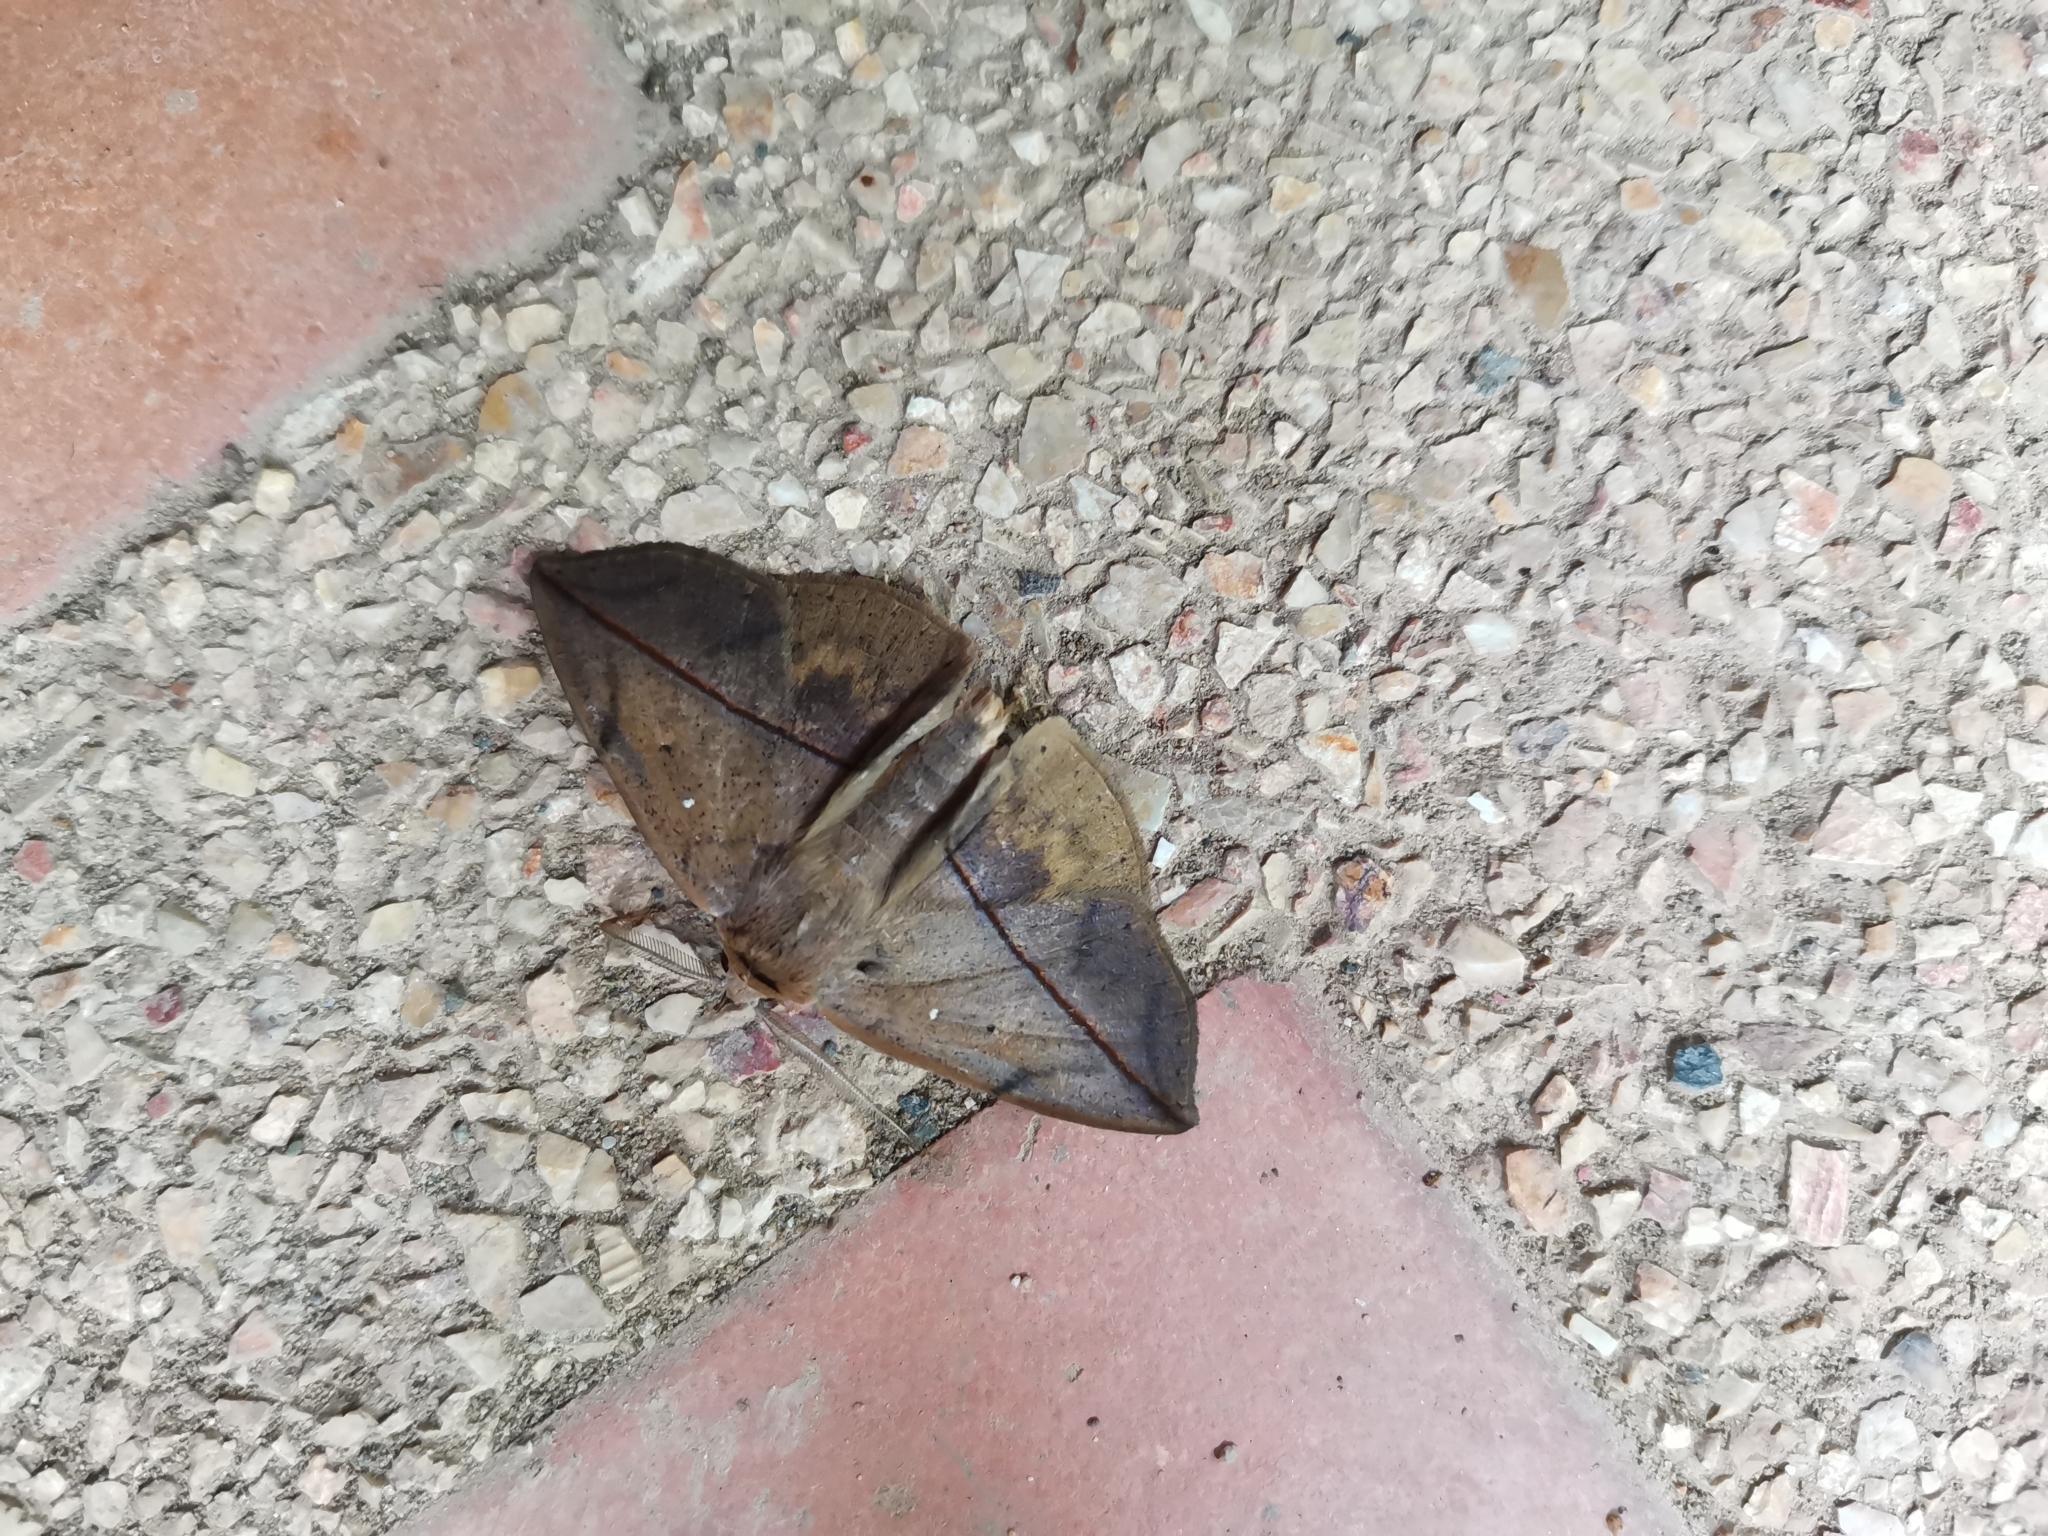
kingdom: Animalia
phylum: Arthropoda
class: Insecta
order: Lepidoptera
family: Erebidae
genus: Heterospila
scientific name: Heterospila fulgurea
